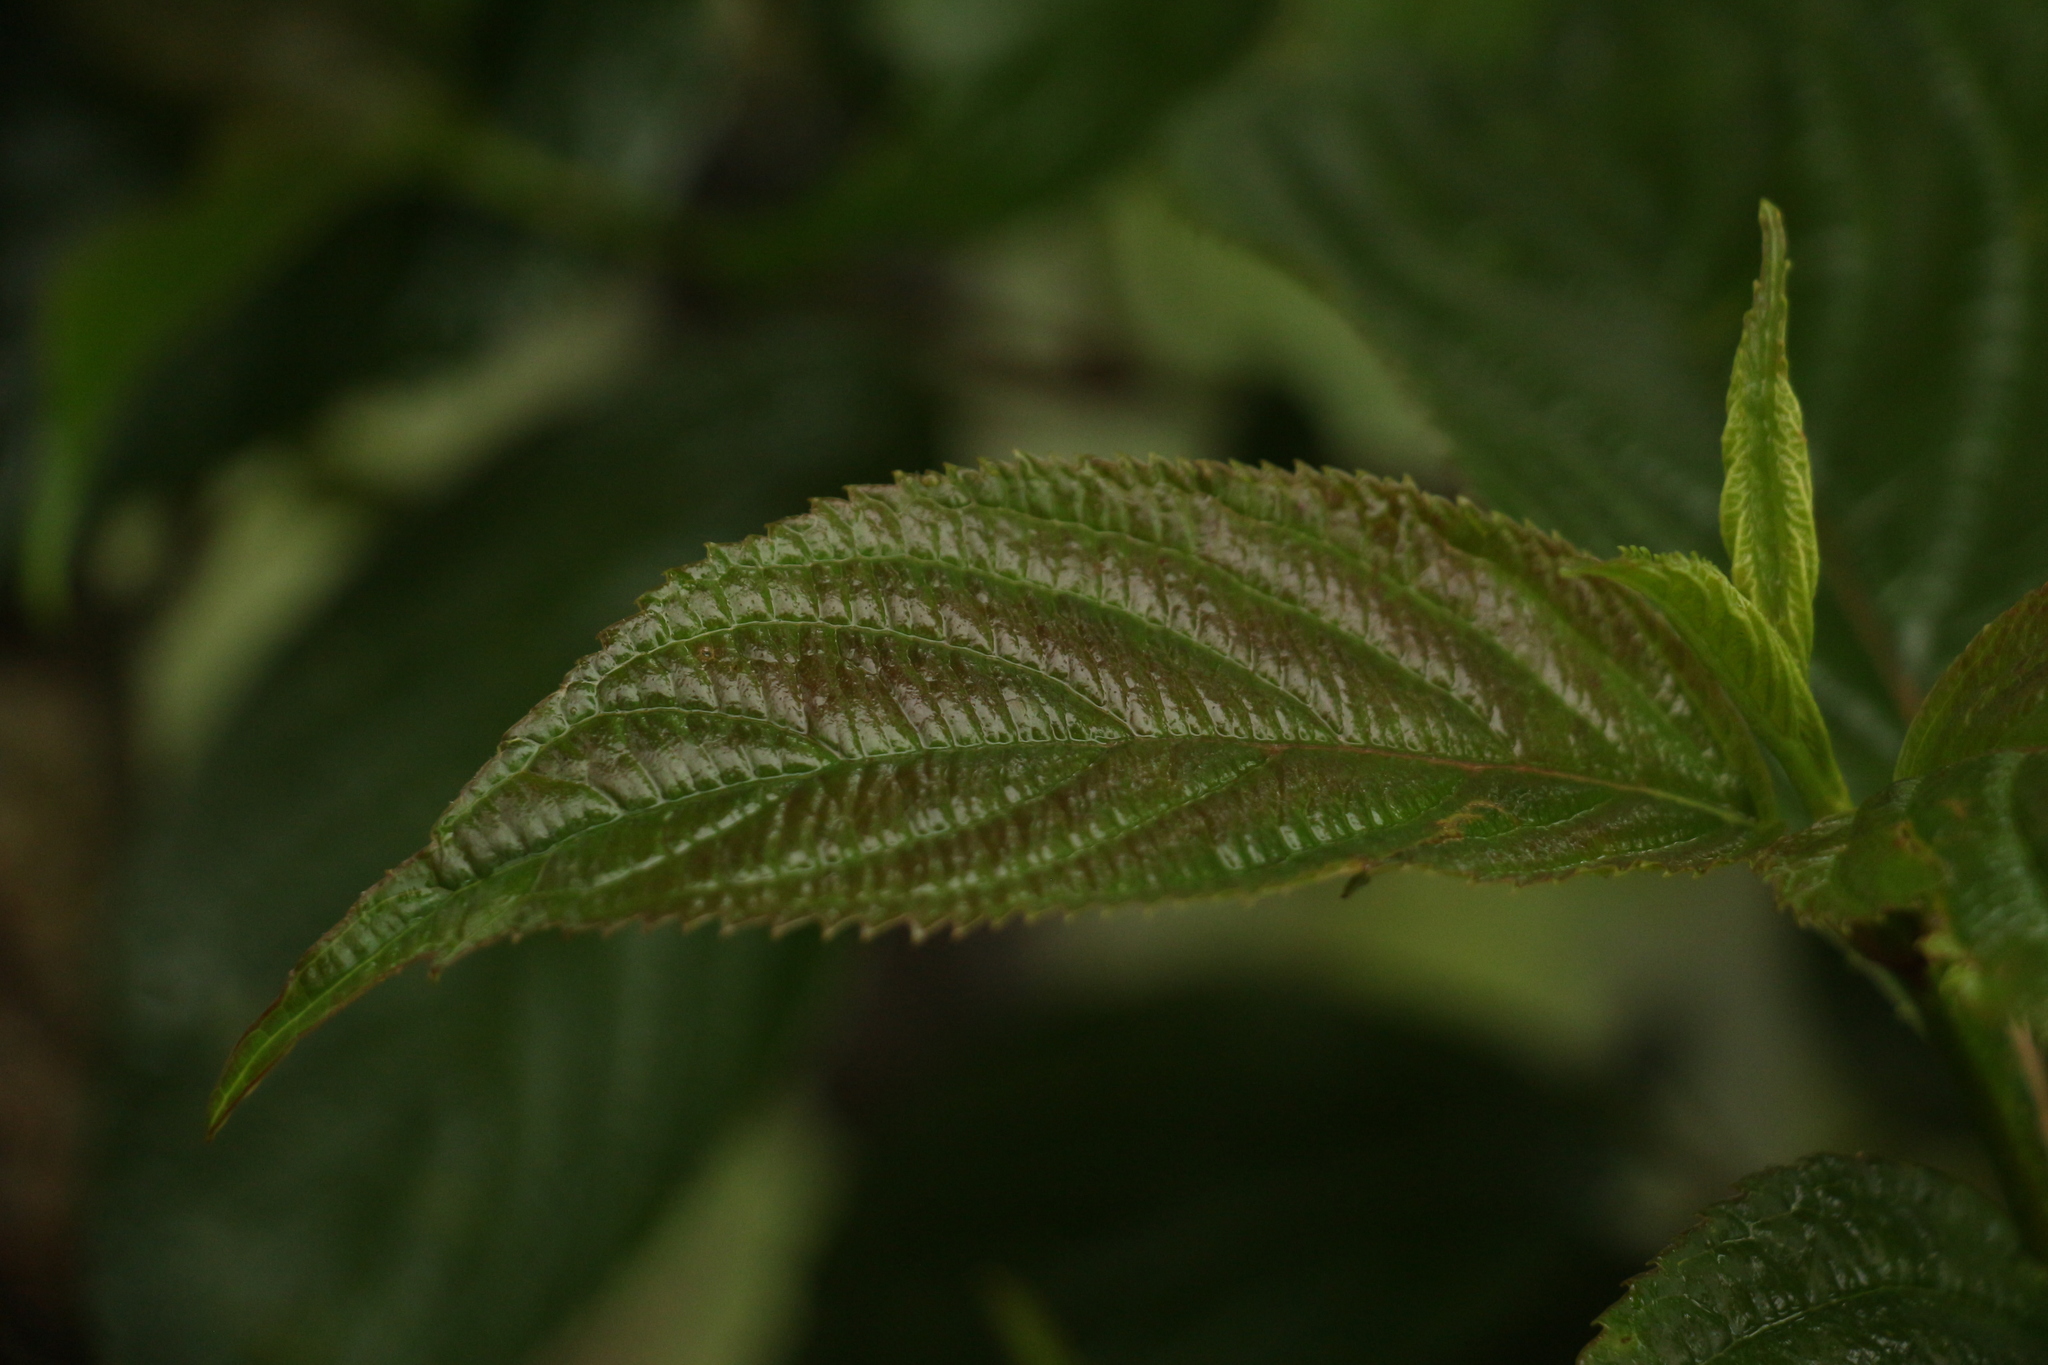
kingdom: Plantae
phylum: Tracheophyta
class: Magnoliopsida
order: Dipsacales
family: Viburnaceae
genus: Viburnum
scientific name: Viburnum erubescens
